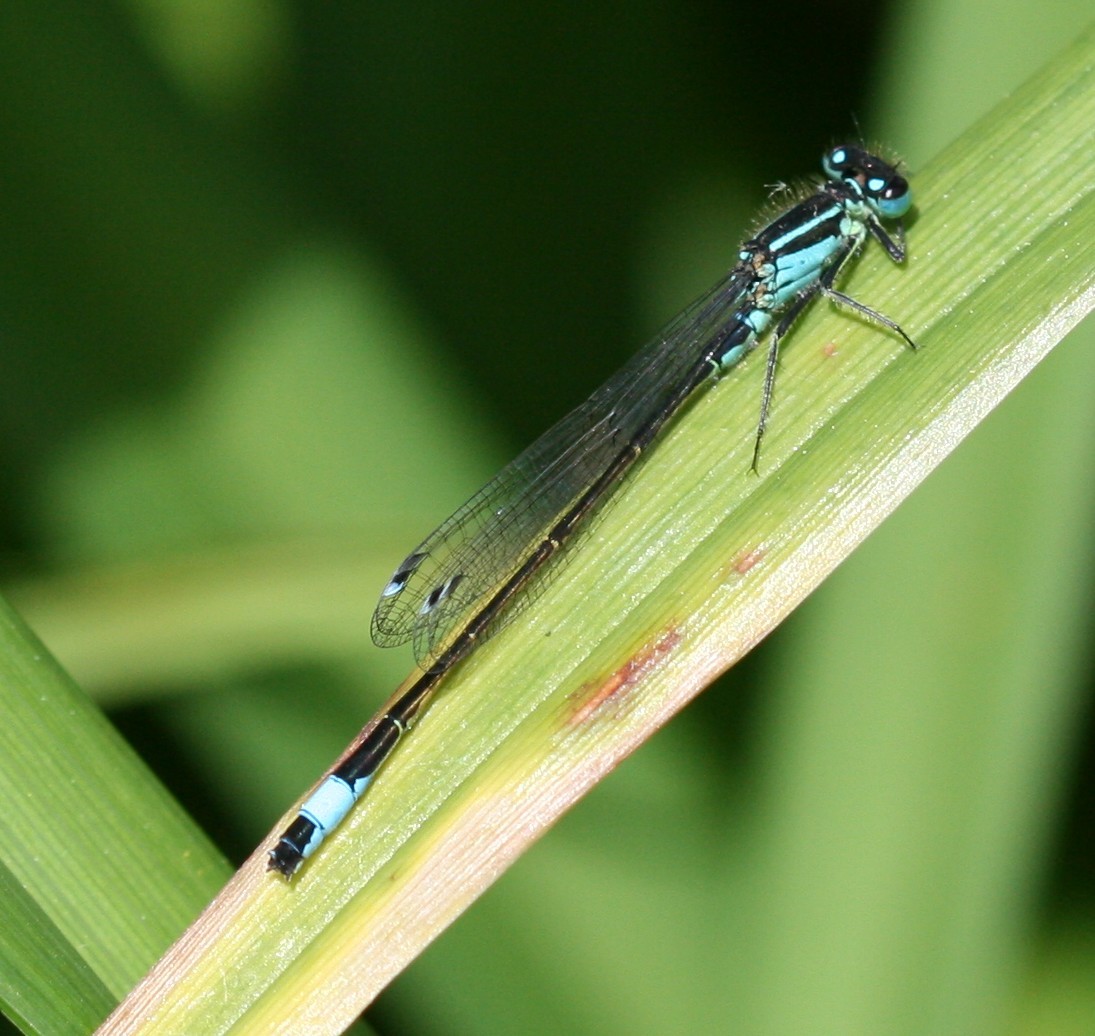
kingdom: Animalia
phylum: Arthropoda
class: Insecta
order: Odonata
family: Coenagrionidae
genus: Ischnura
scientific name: Ischnura elegans
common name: Blue-tailed damselfly
